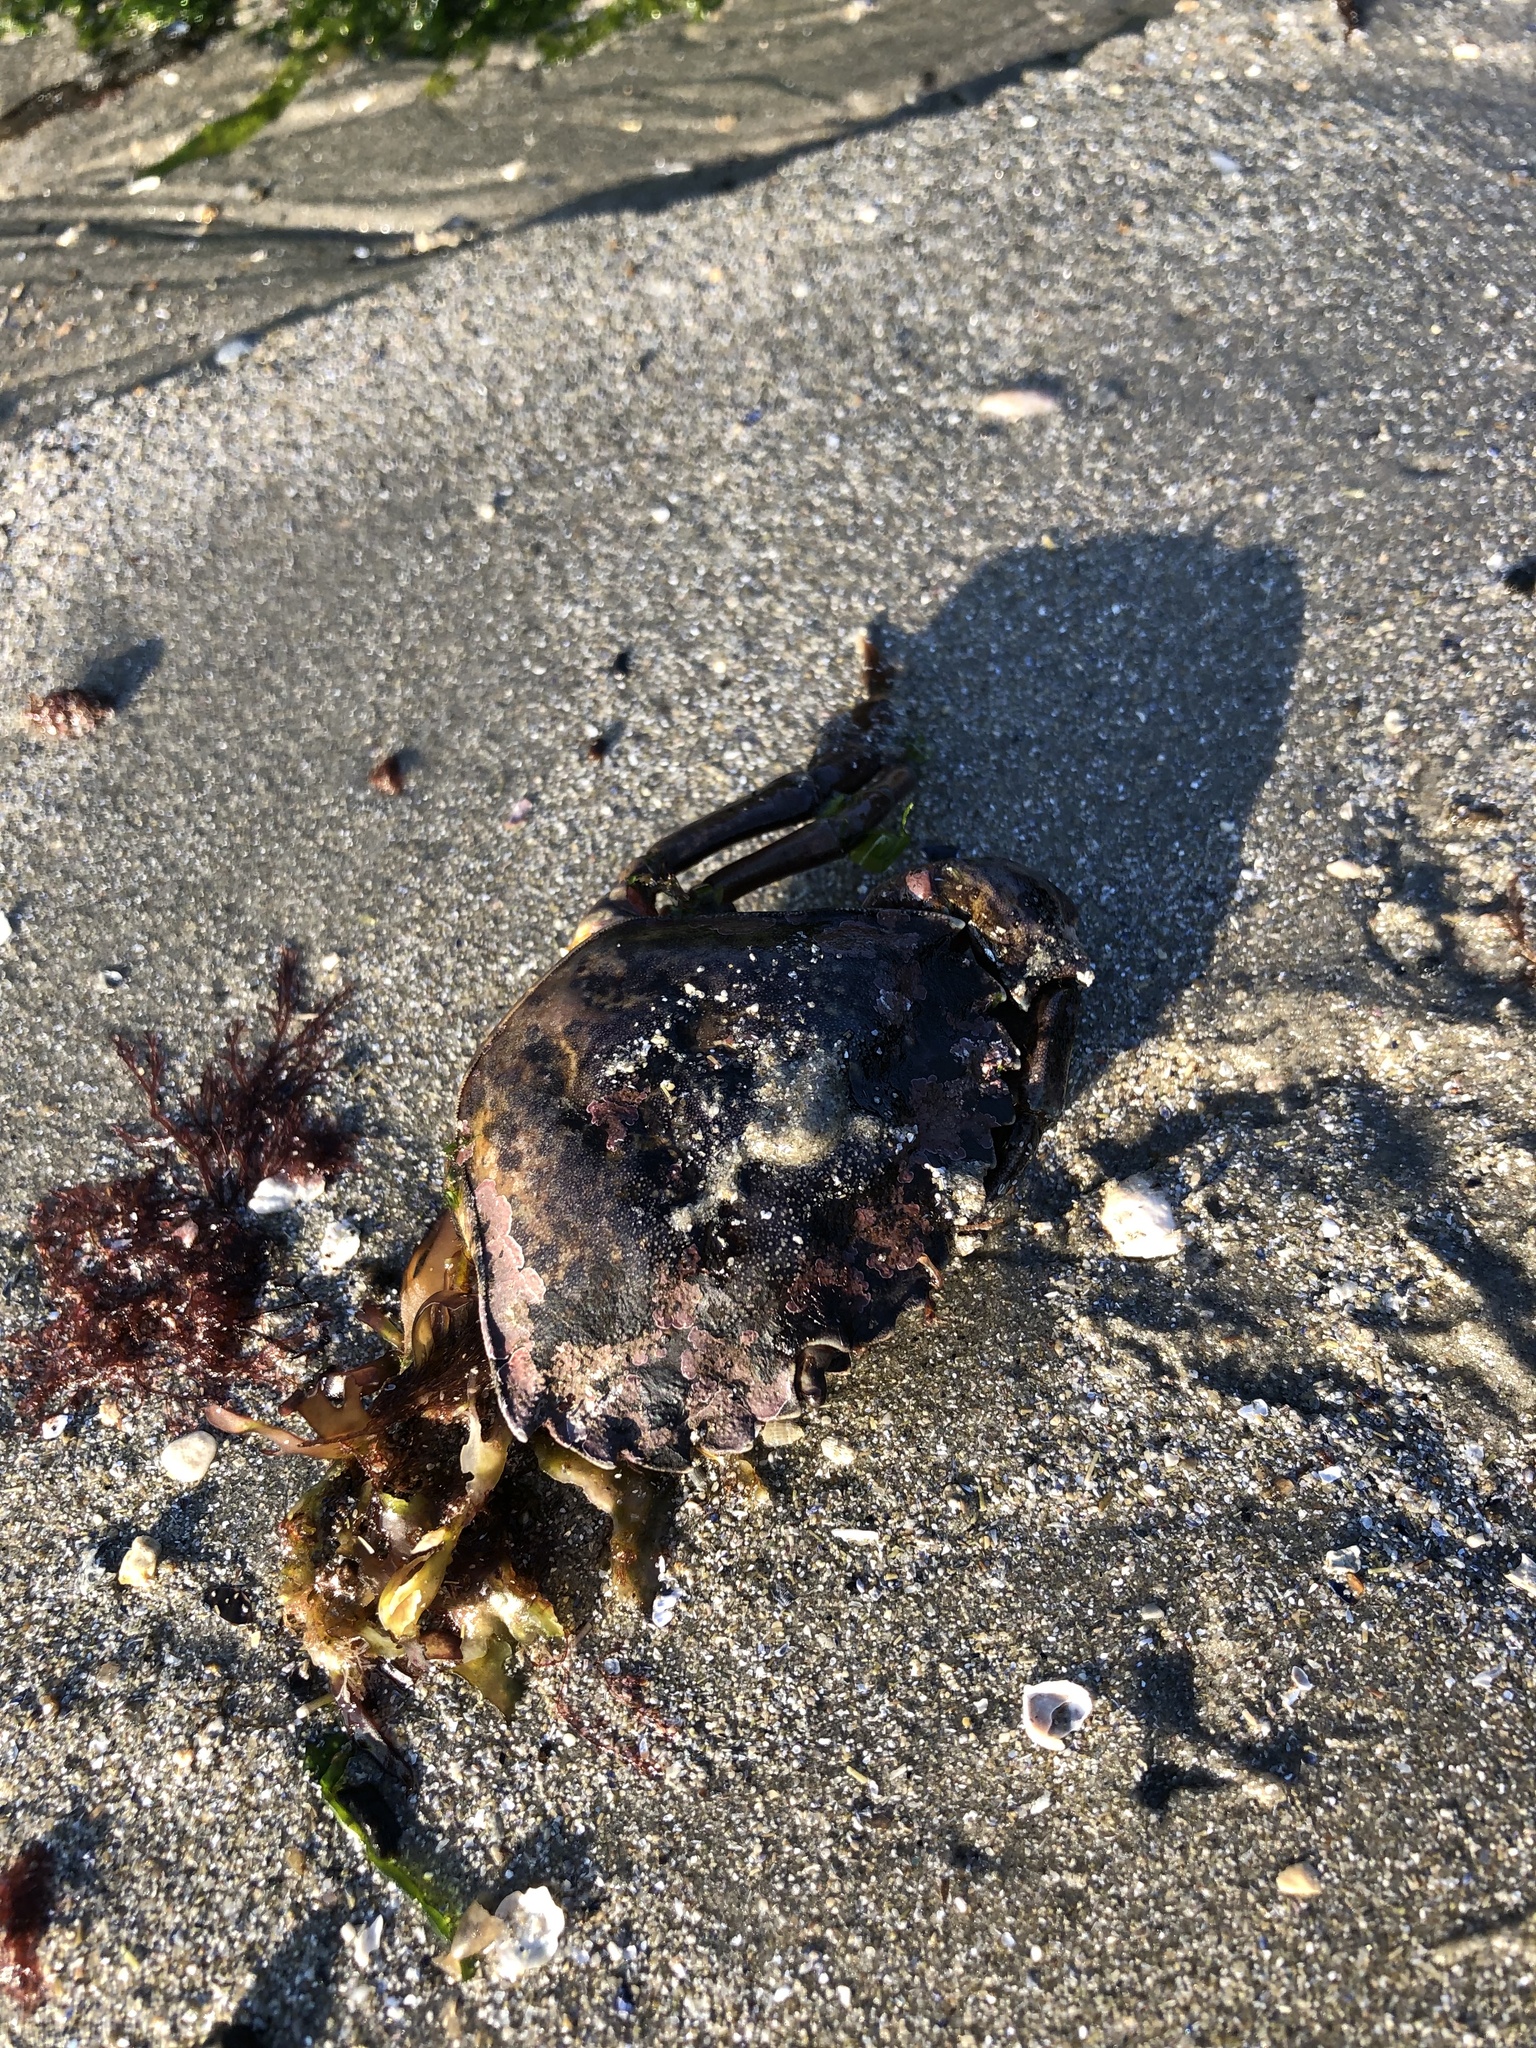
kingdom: Animalia
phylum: Arthropoda
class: Malacostraca
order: Decapoda
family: Carcinidae
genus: Carcinus
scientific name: Carcinus maenas
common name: European green crab
